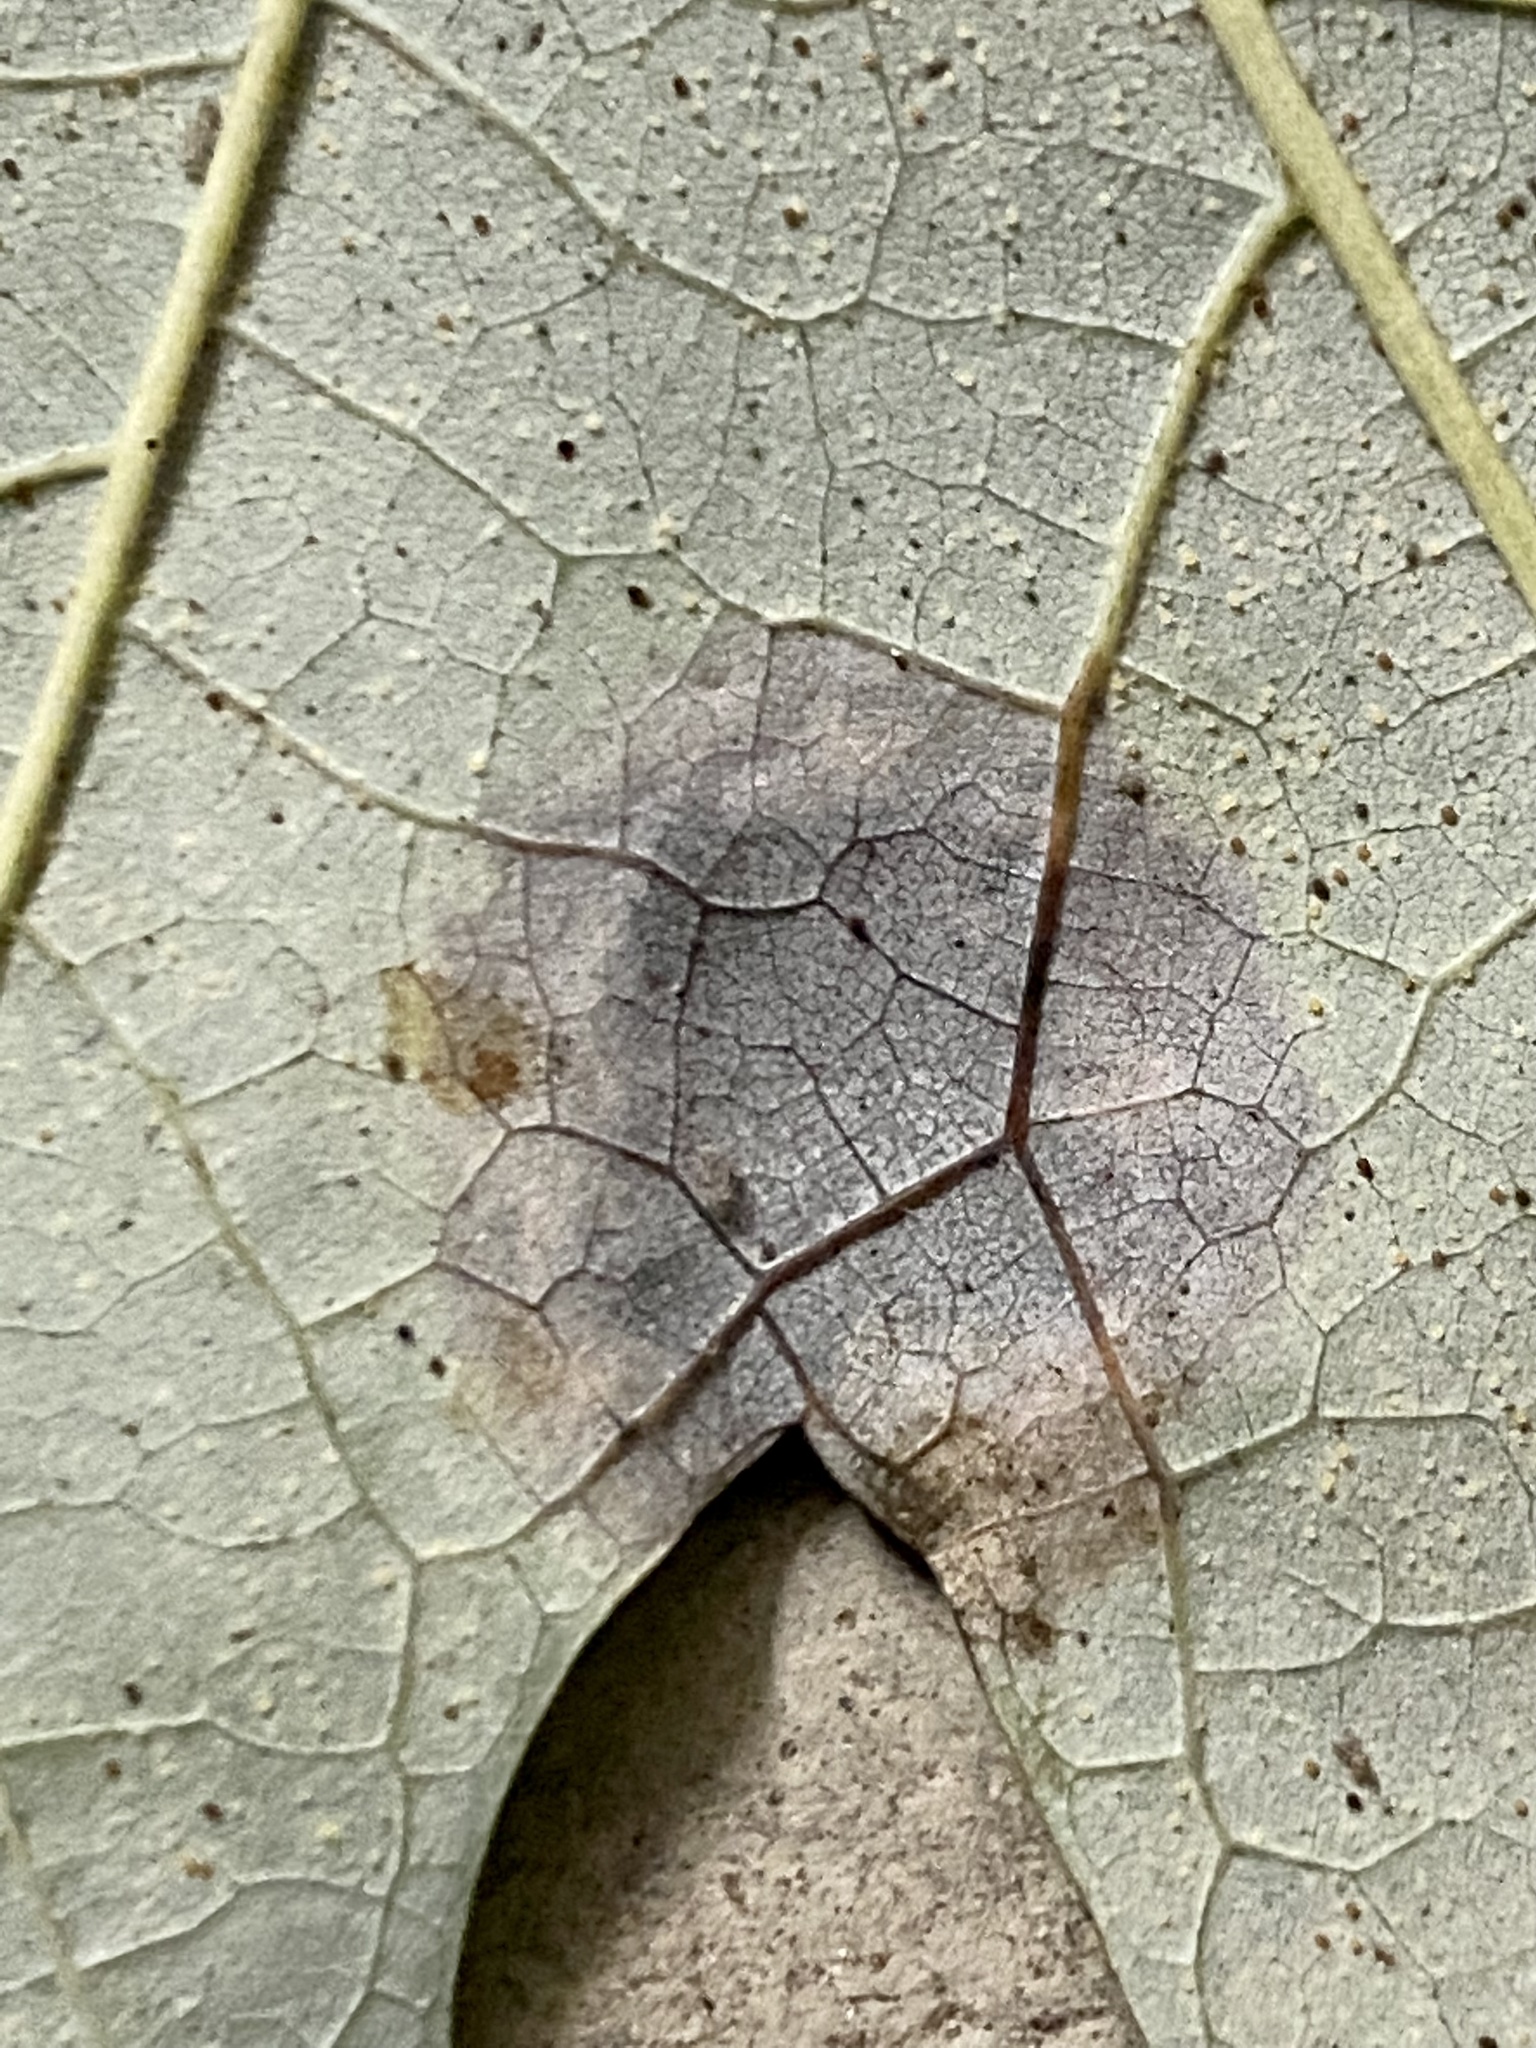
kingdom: Fungi
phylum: Ascomycota
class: Leotiomycetes
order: Rhytismatales
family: Rhytismataceae
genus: Rhytisma
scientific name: Rhytisma americanum
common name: American tar spot
